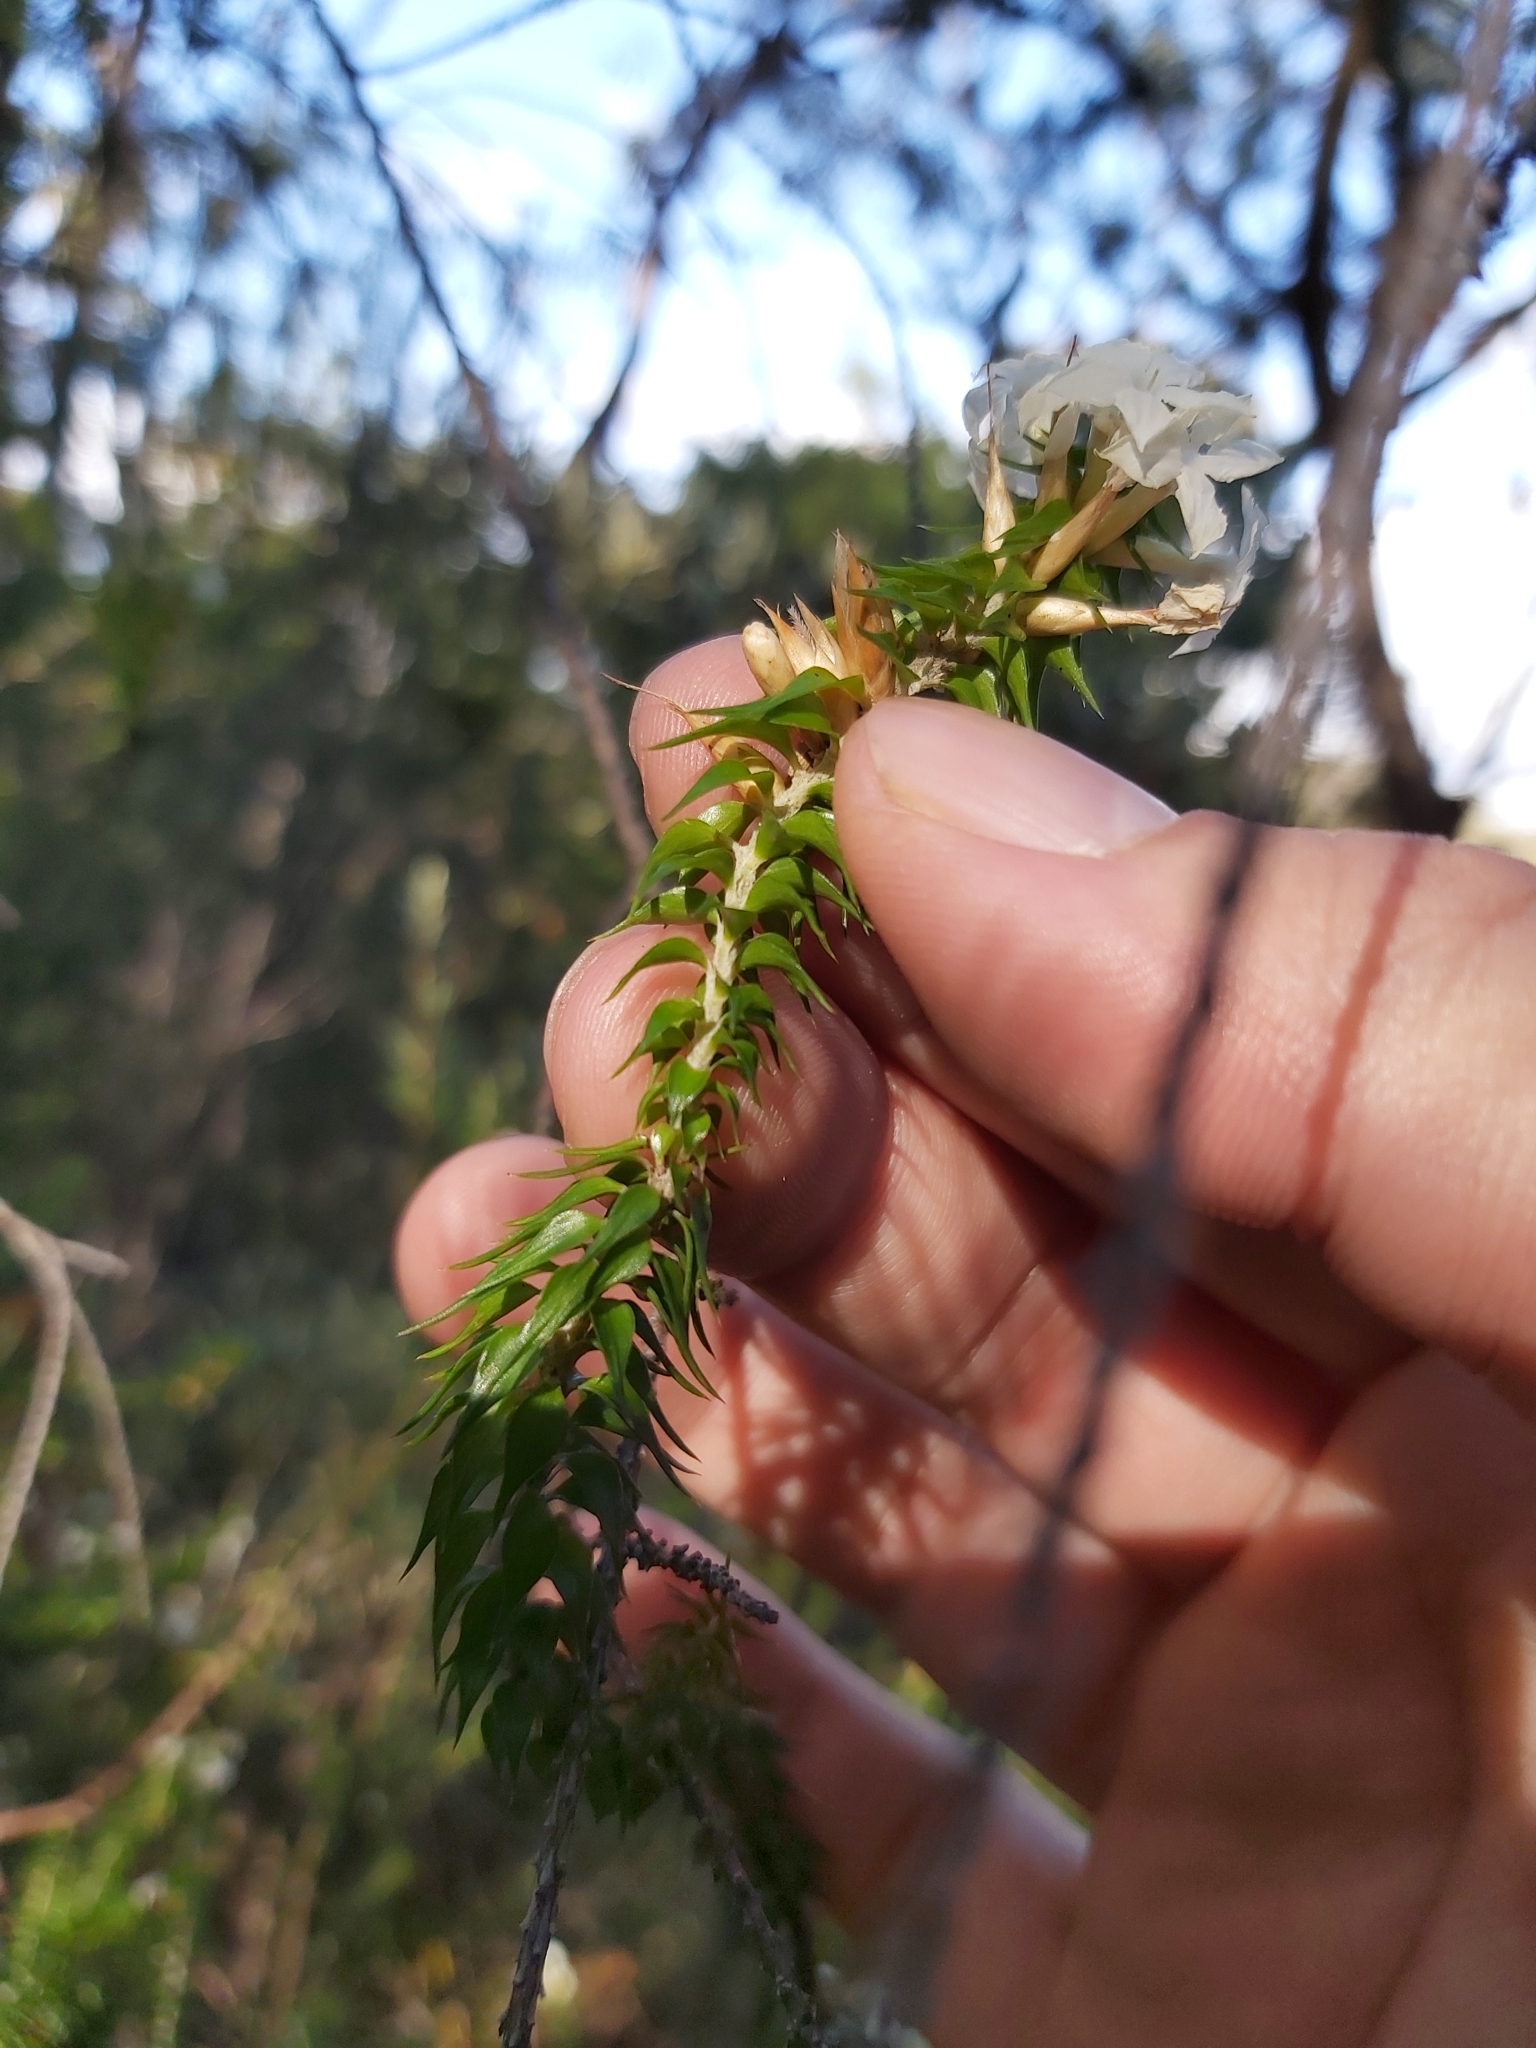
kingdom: Plantae
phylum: Tracheophyta
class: Magnoliopsida
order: Ericales
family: Ericaceae
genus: Woollsia
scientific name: Woollsia pungens
